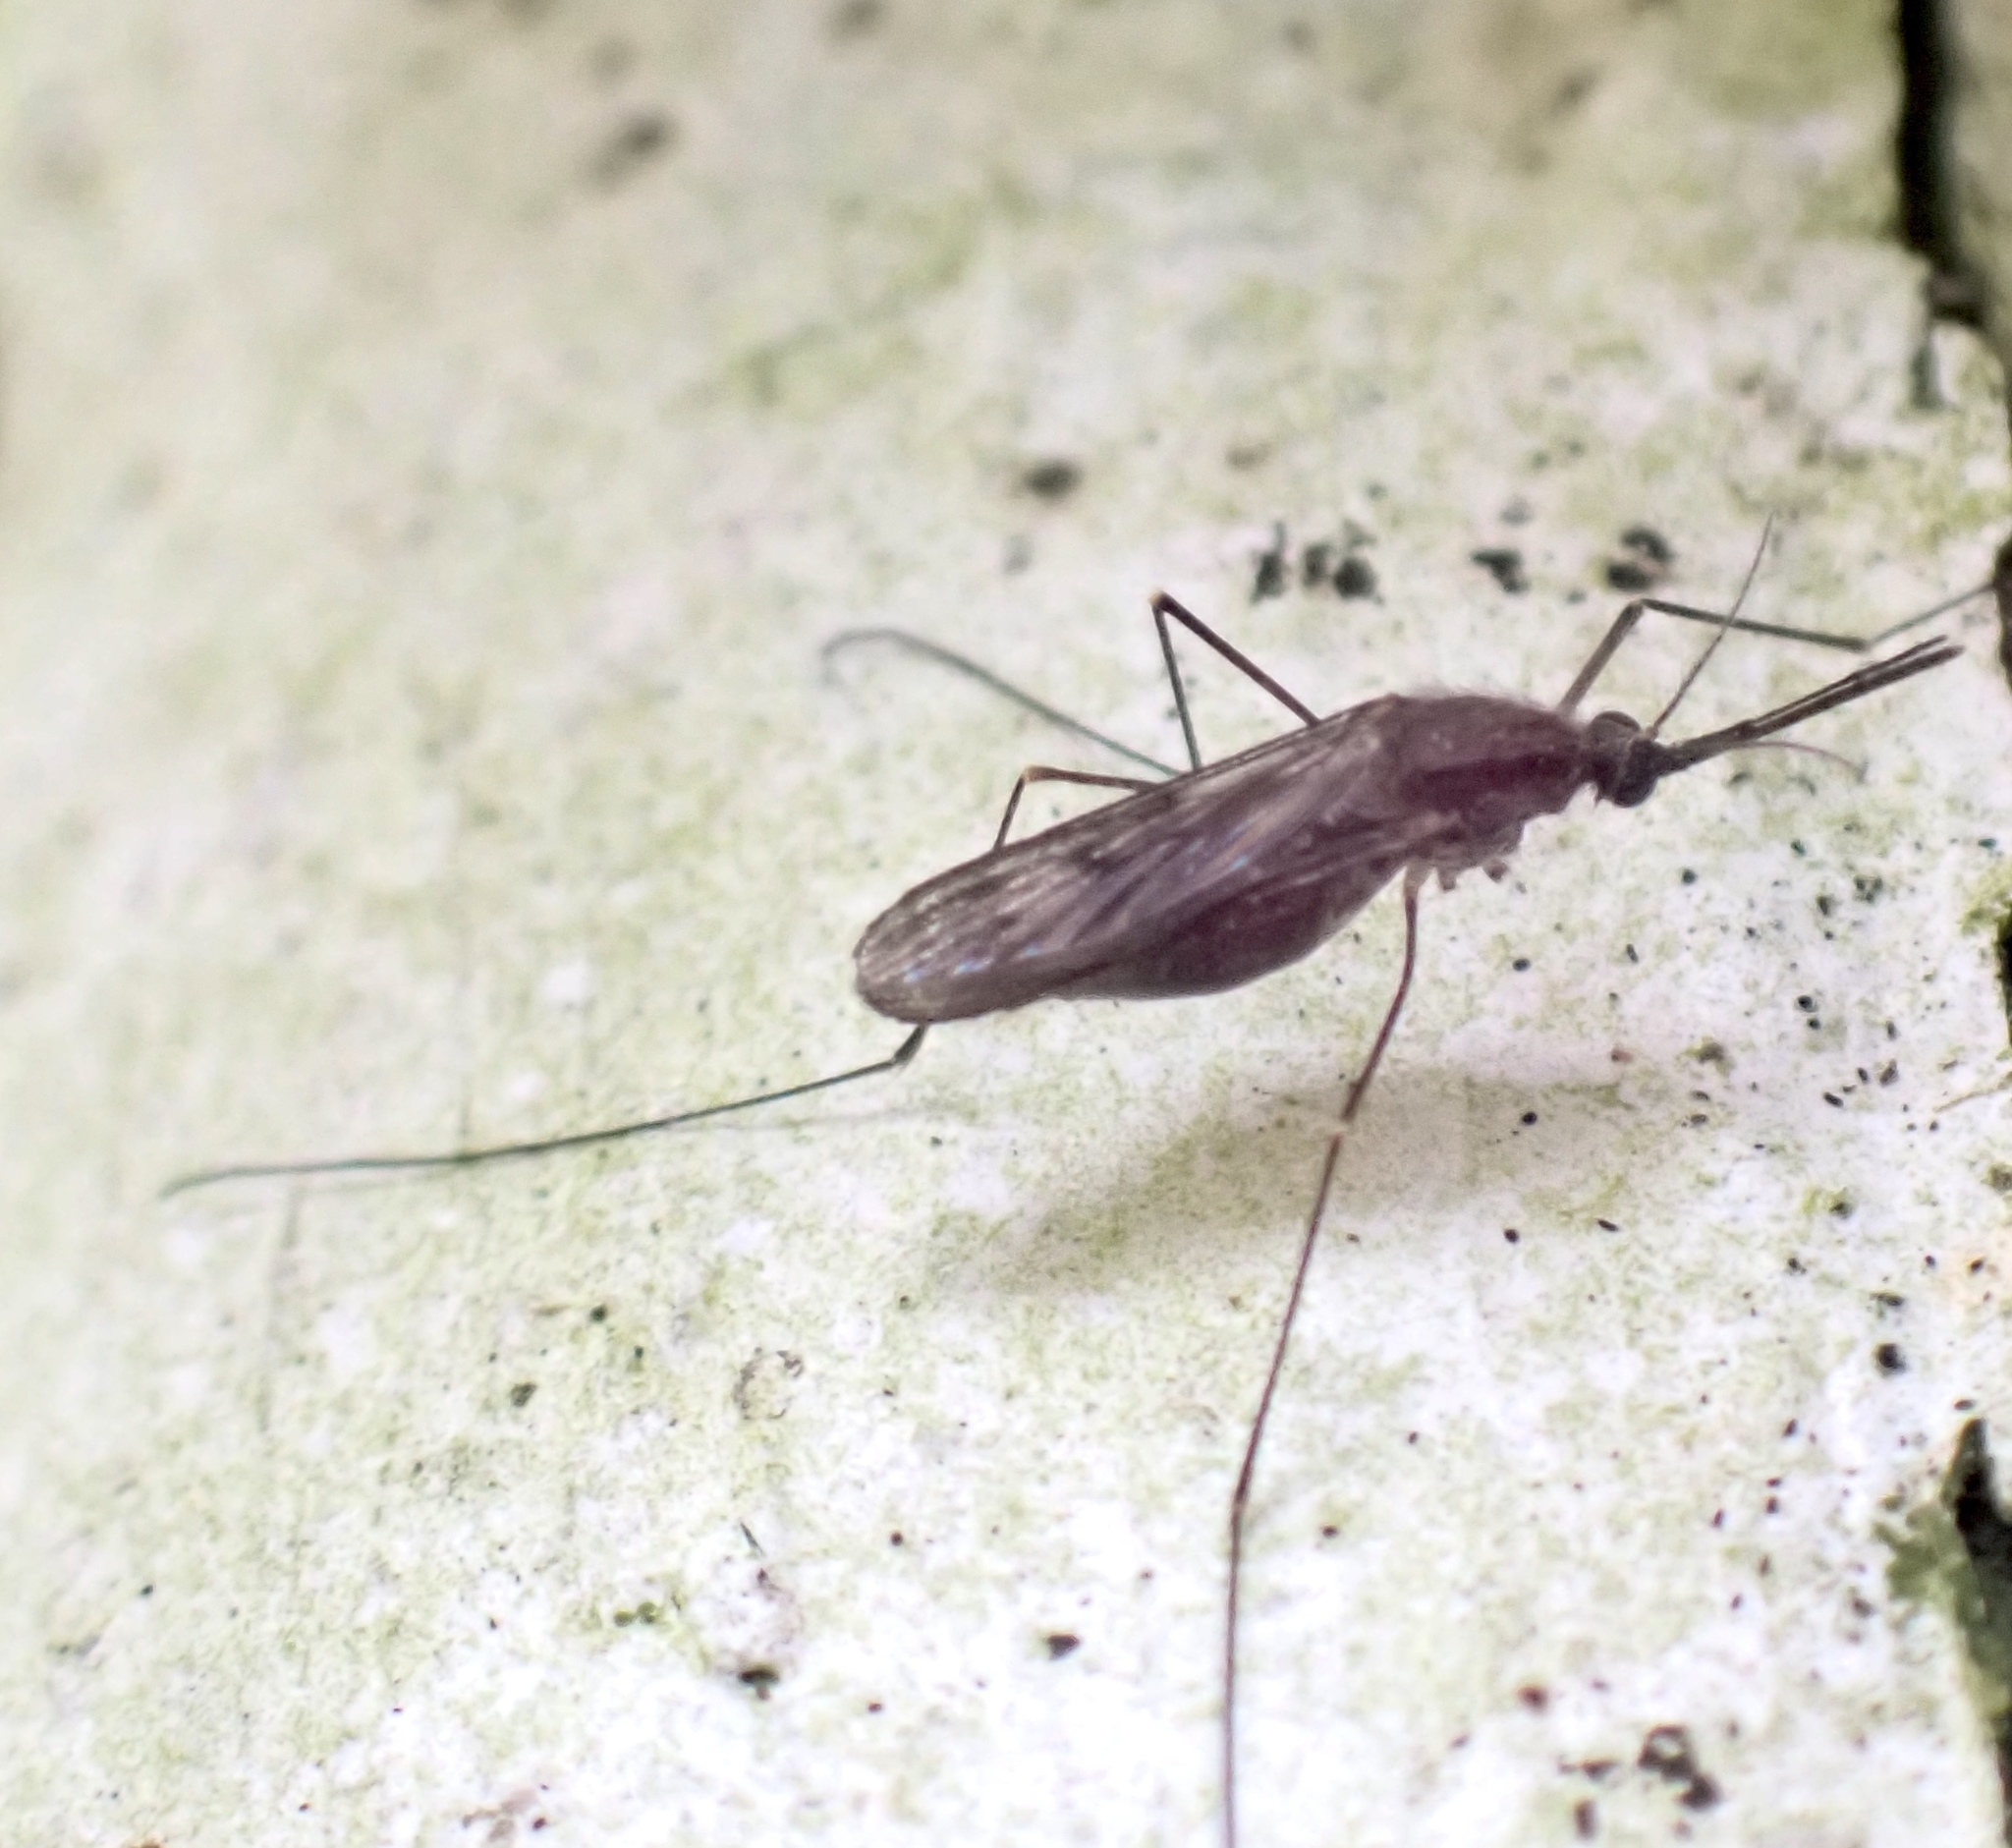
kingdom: Animalia
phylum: Arthropoda
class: Insecta
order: Diptera
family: Culicidae
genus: Anopheles
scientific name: Anopheles
